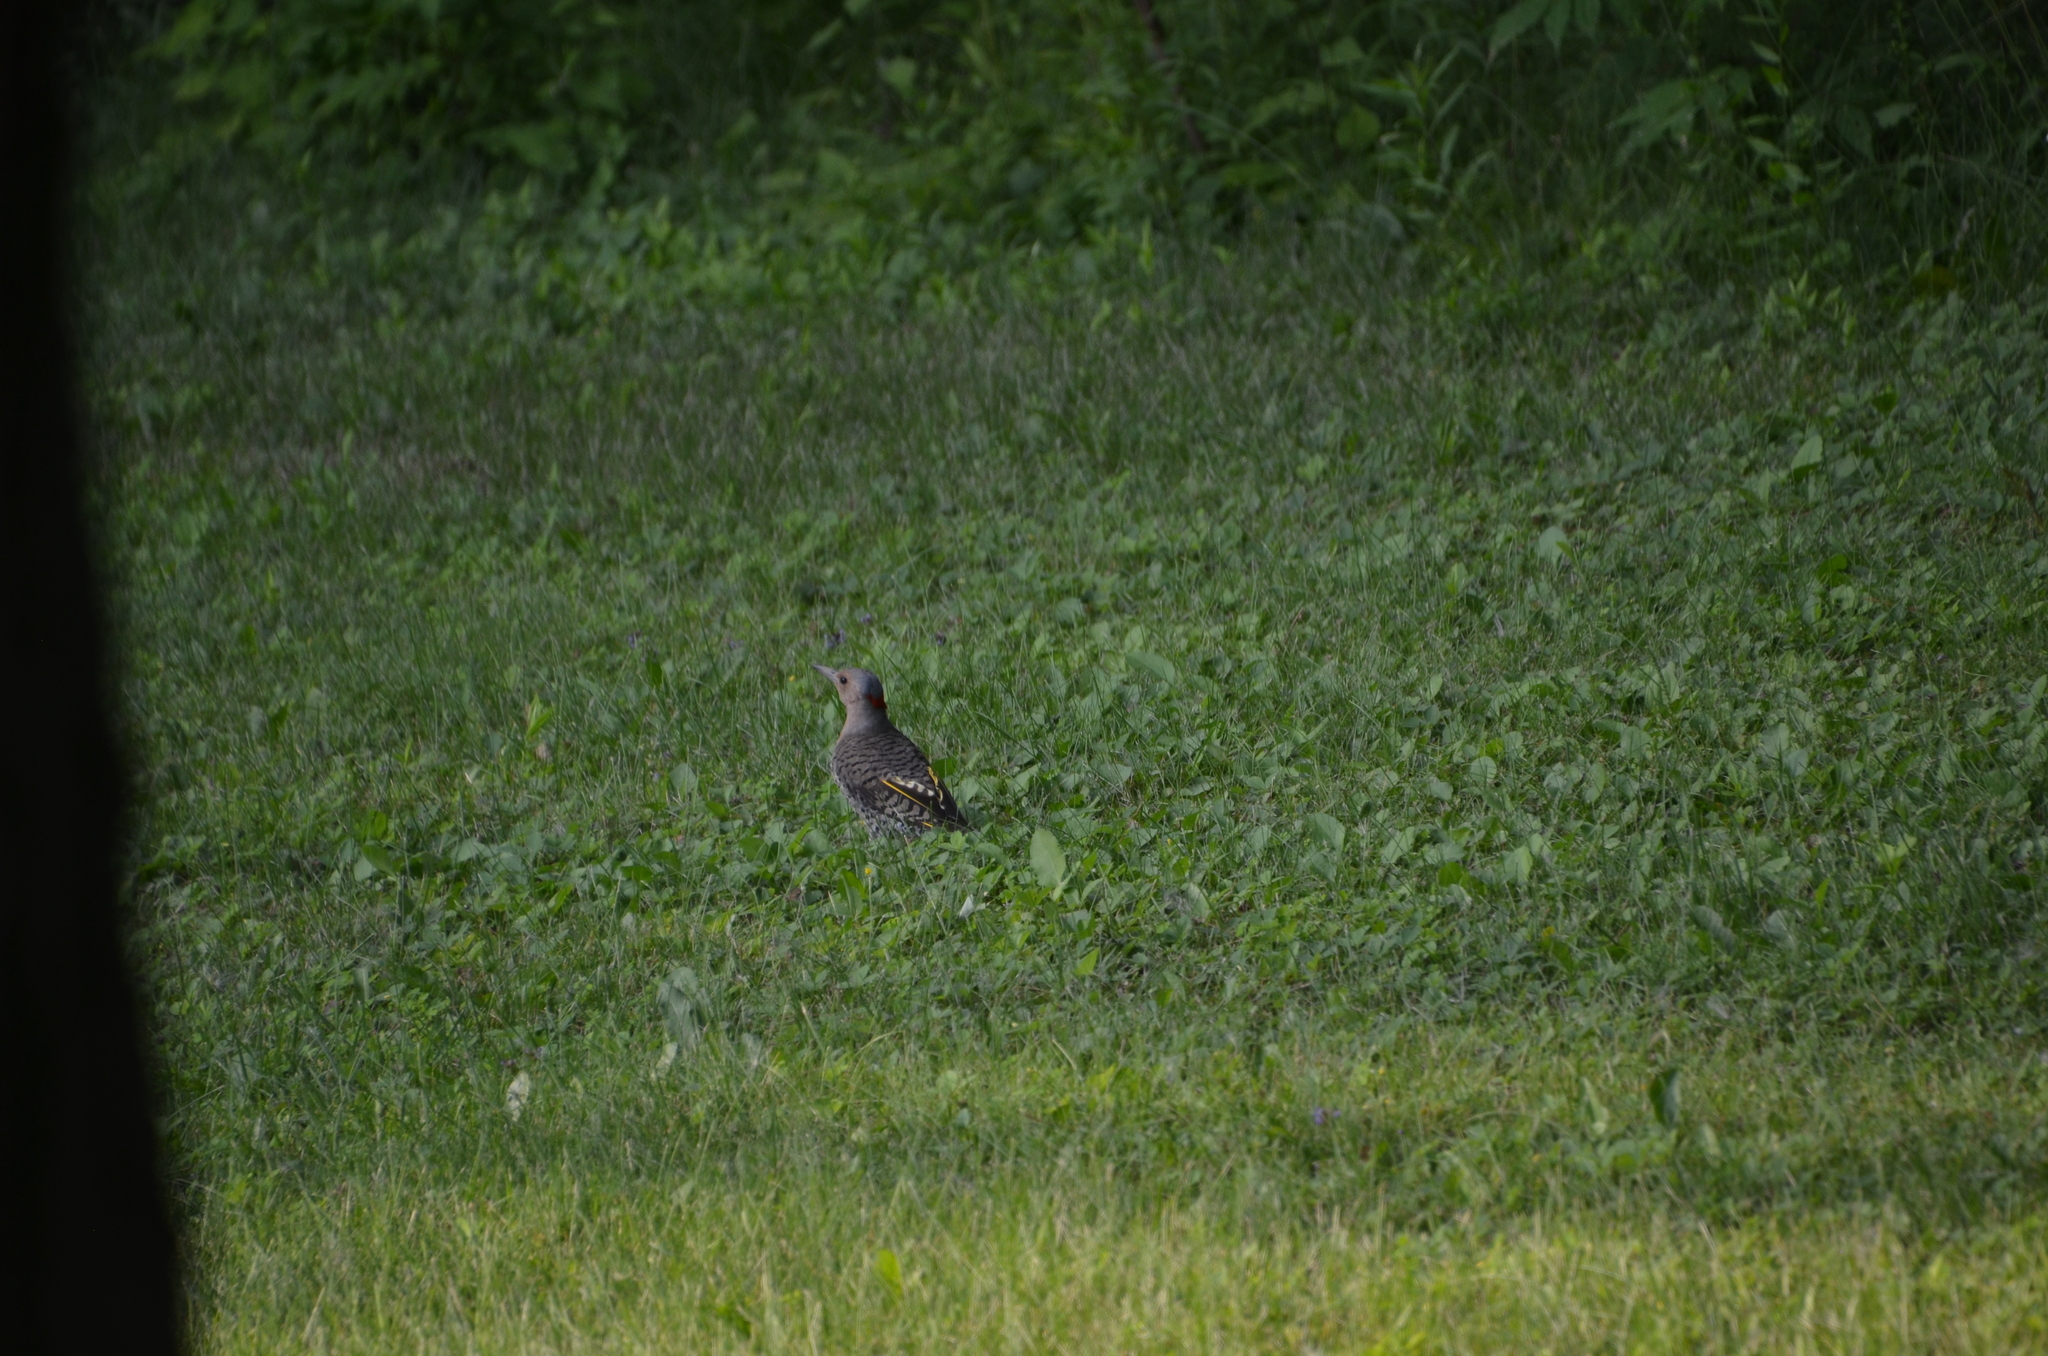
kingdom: Animalia
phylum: Chordata
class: Aves
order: Piciformes
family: Picidae
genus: Colaptes
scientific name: Colaptes auratus
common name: Northern flicker
